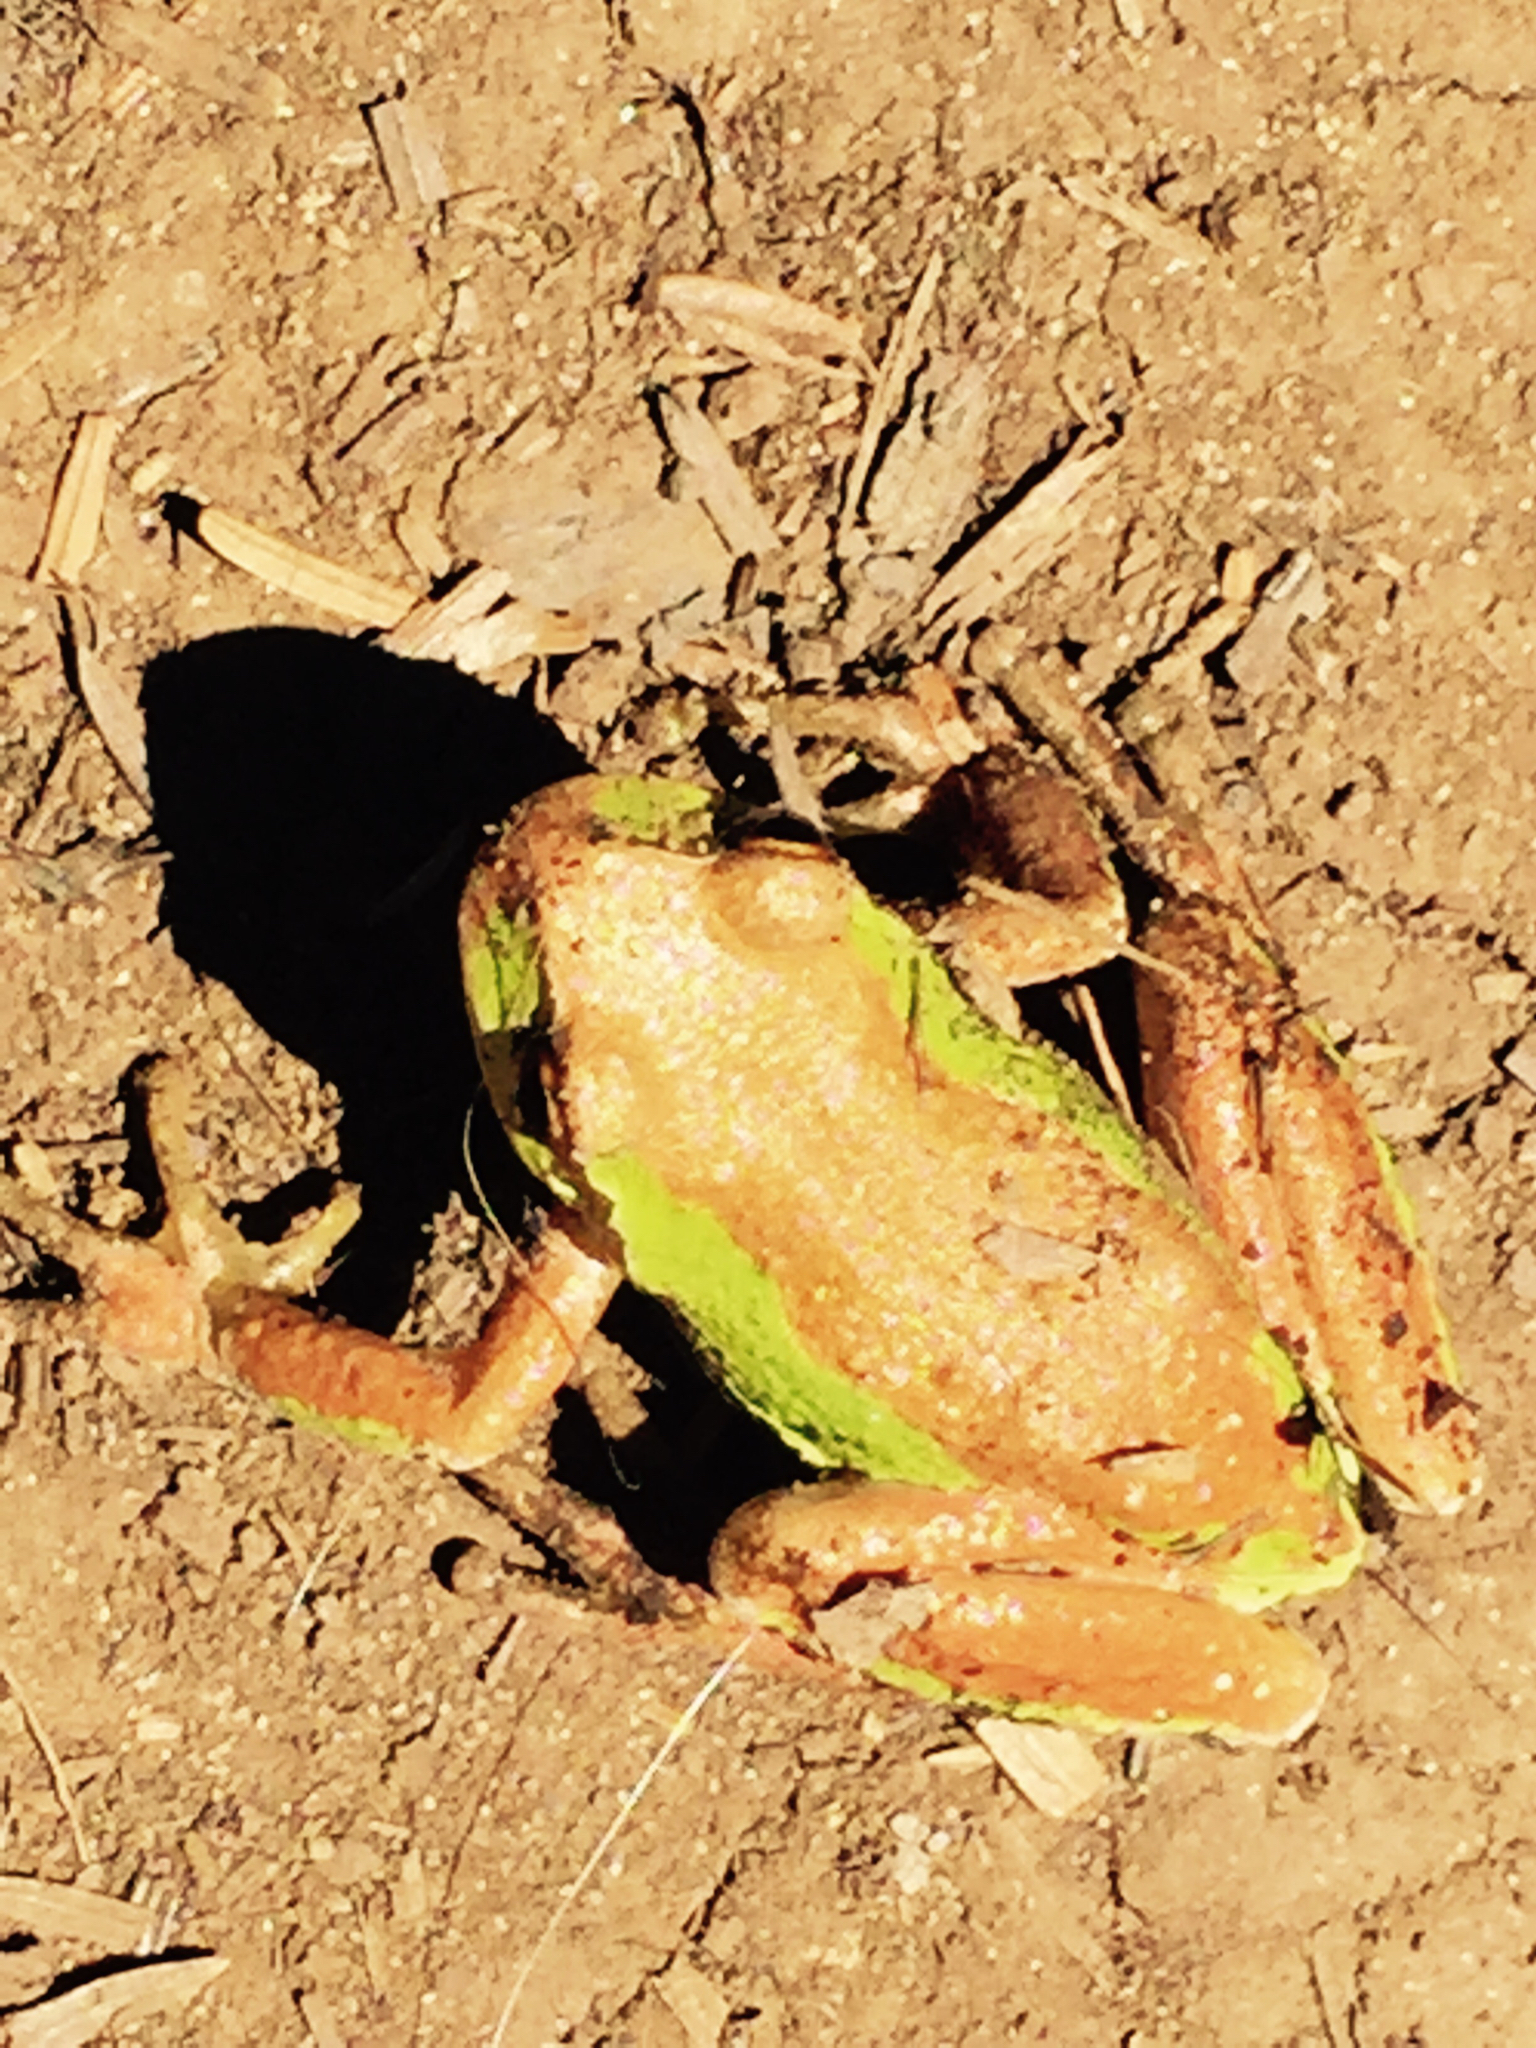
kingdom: Animalia
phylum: Chordata
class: Amphibia
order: Anura
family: Hylidae
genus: Pseudacris
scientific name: Pseudacris regilla
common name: Pacific chorus frog
